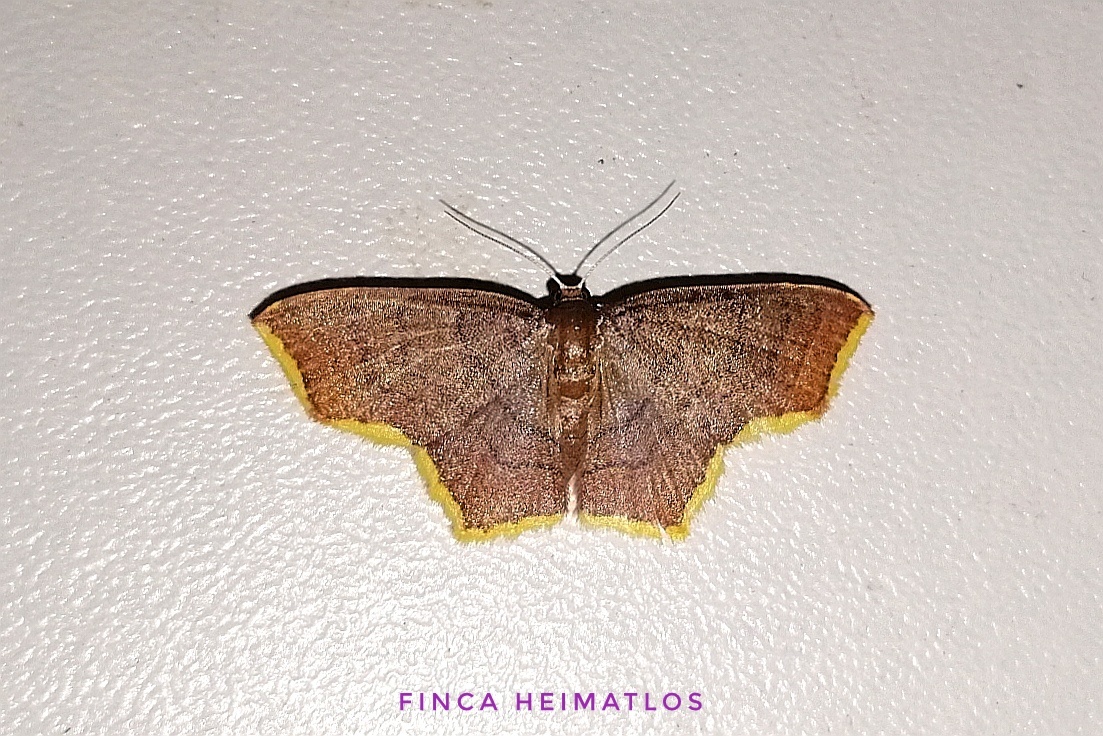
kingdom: Animalia
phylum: Arthropoda
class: Insecta
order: Lepidoptera
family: Geometridae
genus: Eois
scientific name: Eois flavotaeniata
